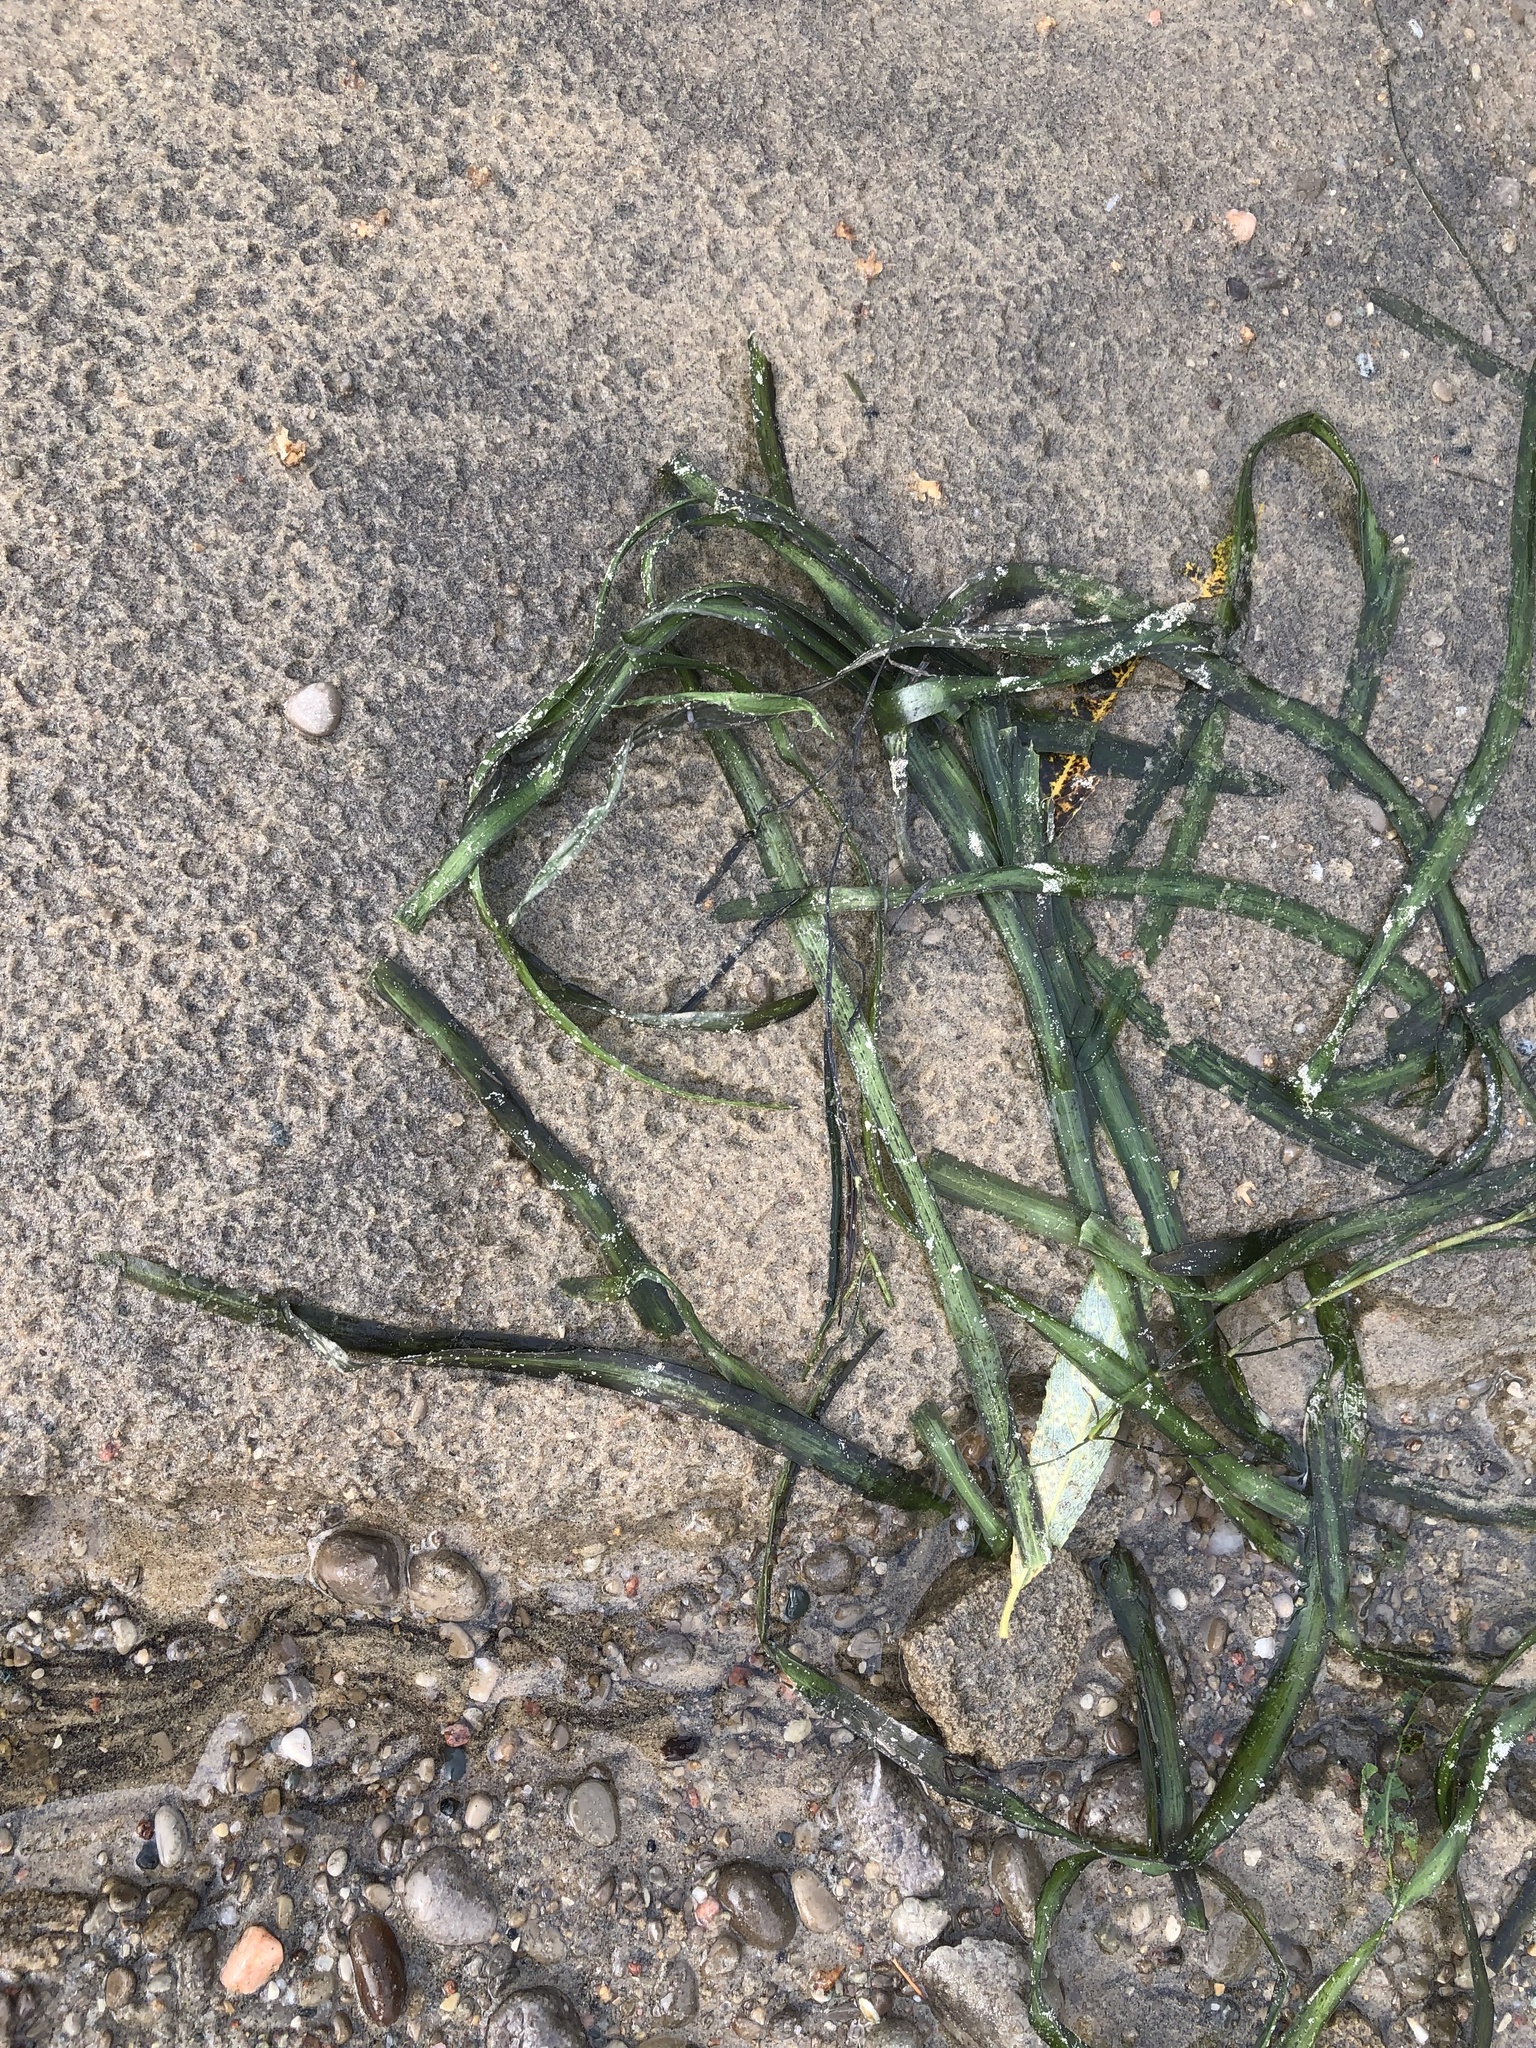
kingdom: Plantae
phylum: Tracheophyta
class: Liliopsida
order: Alismatales
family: Hydrocharitaceae
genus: Vallisneria
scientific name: Vallisneria americana
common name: American eelgrass
